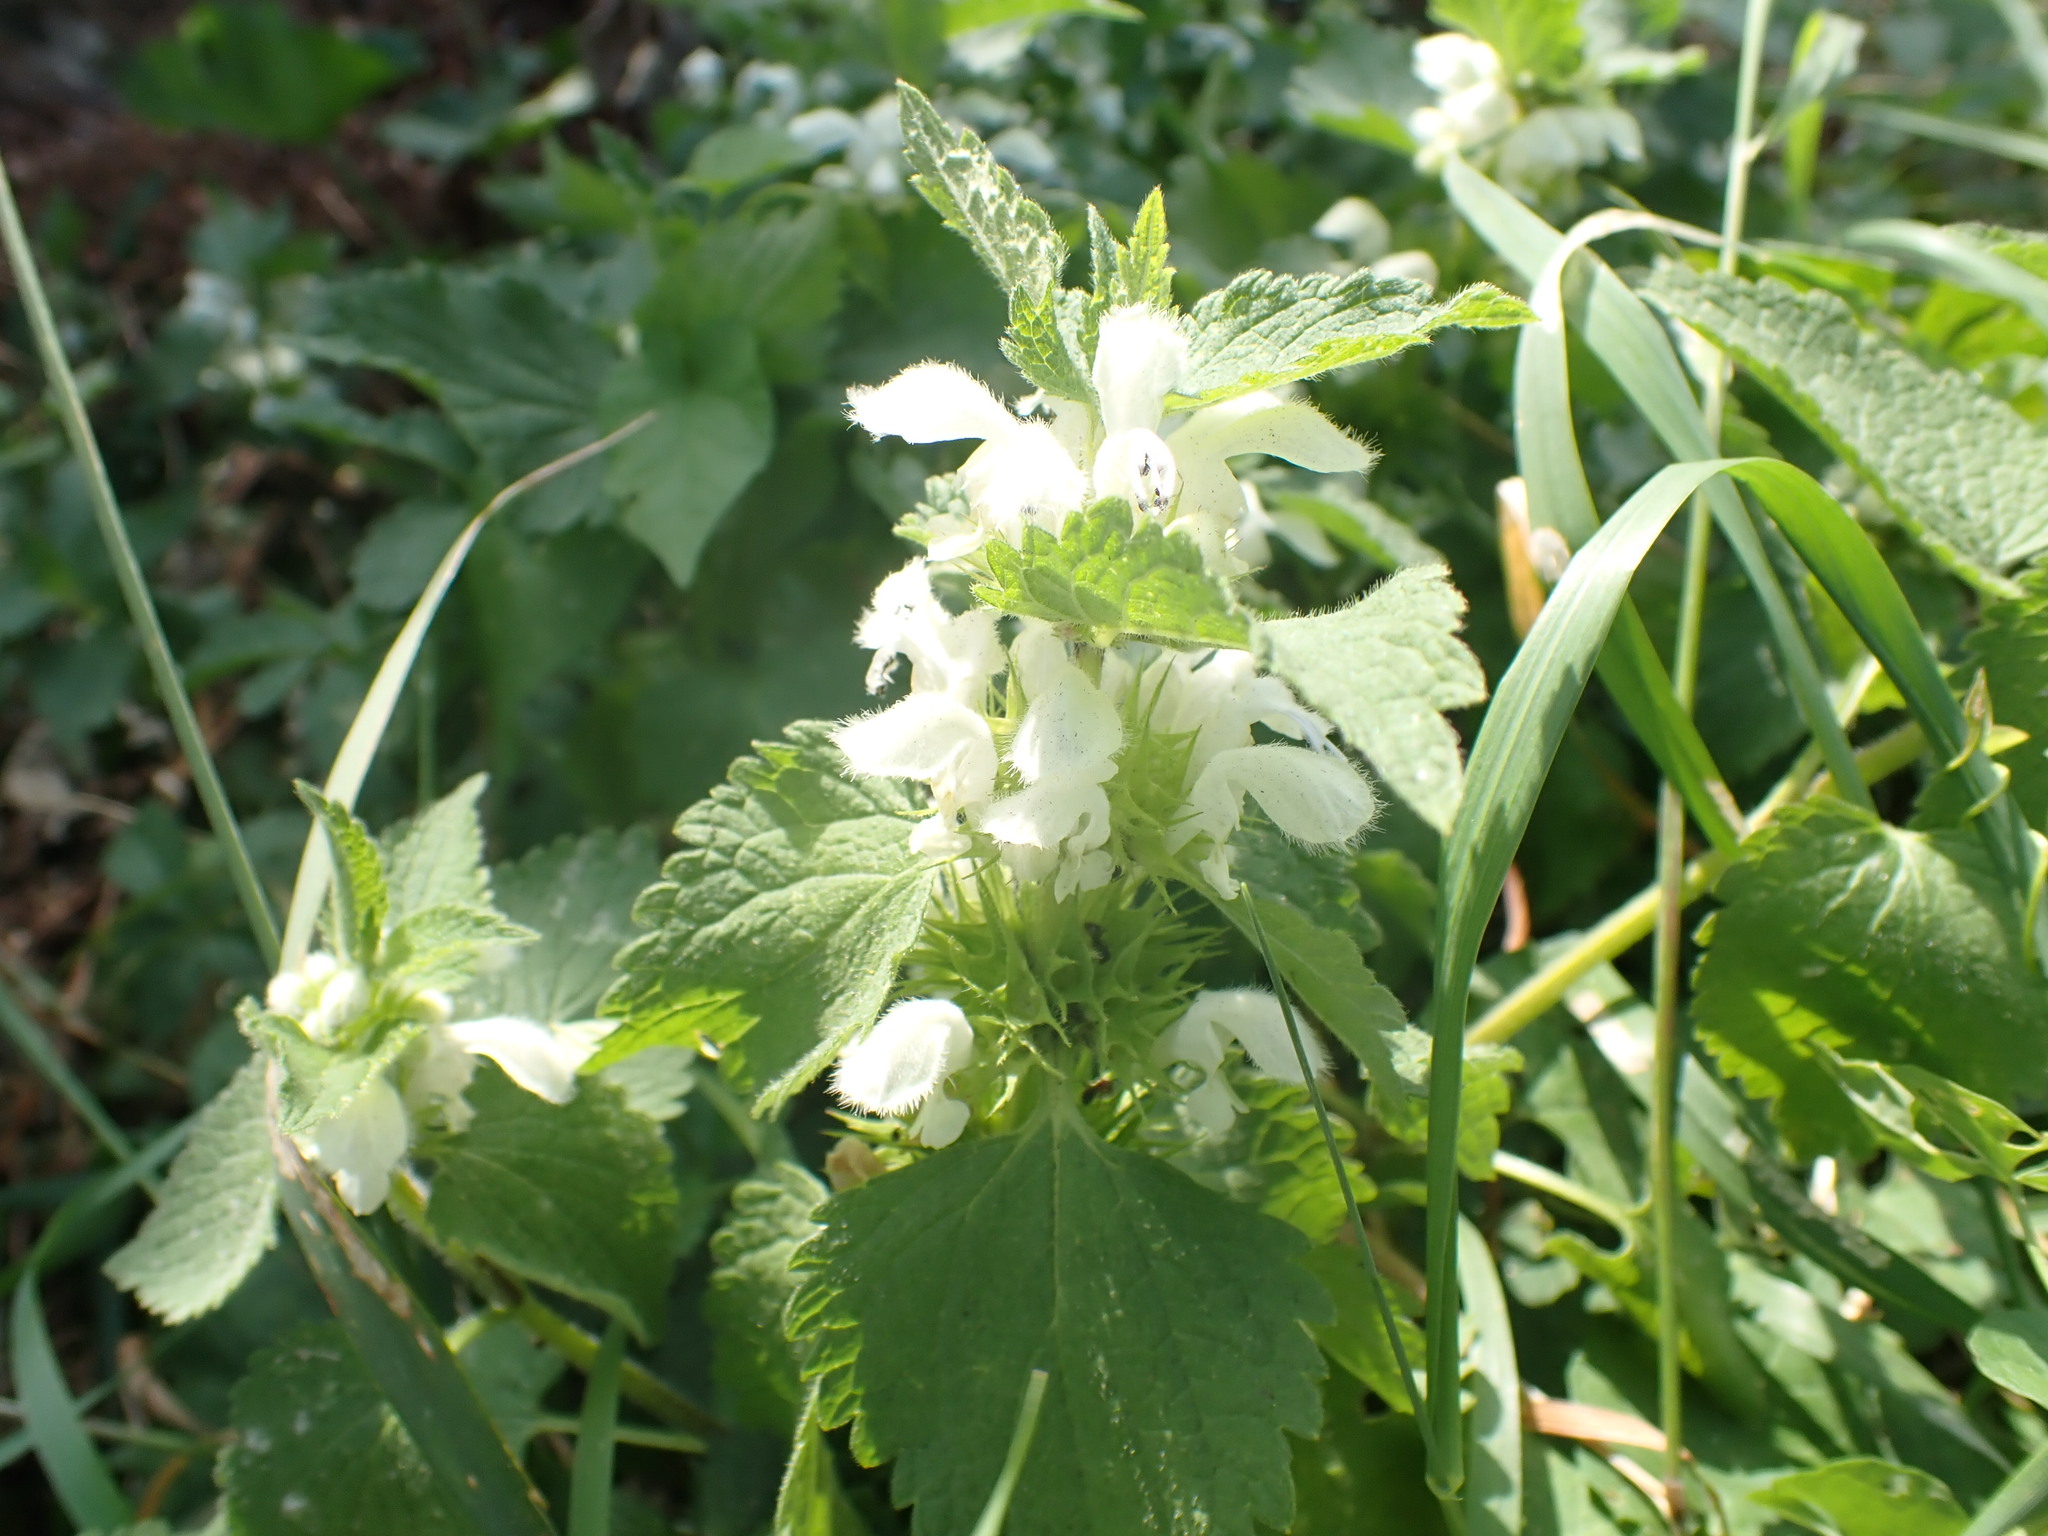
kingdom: Plantae
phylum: Tracheophyta
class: Magnoliopsida
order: Lamiales
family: Lamiaceae
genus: Lamium
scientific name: Lamium album
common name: White dead-nettle
